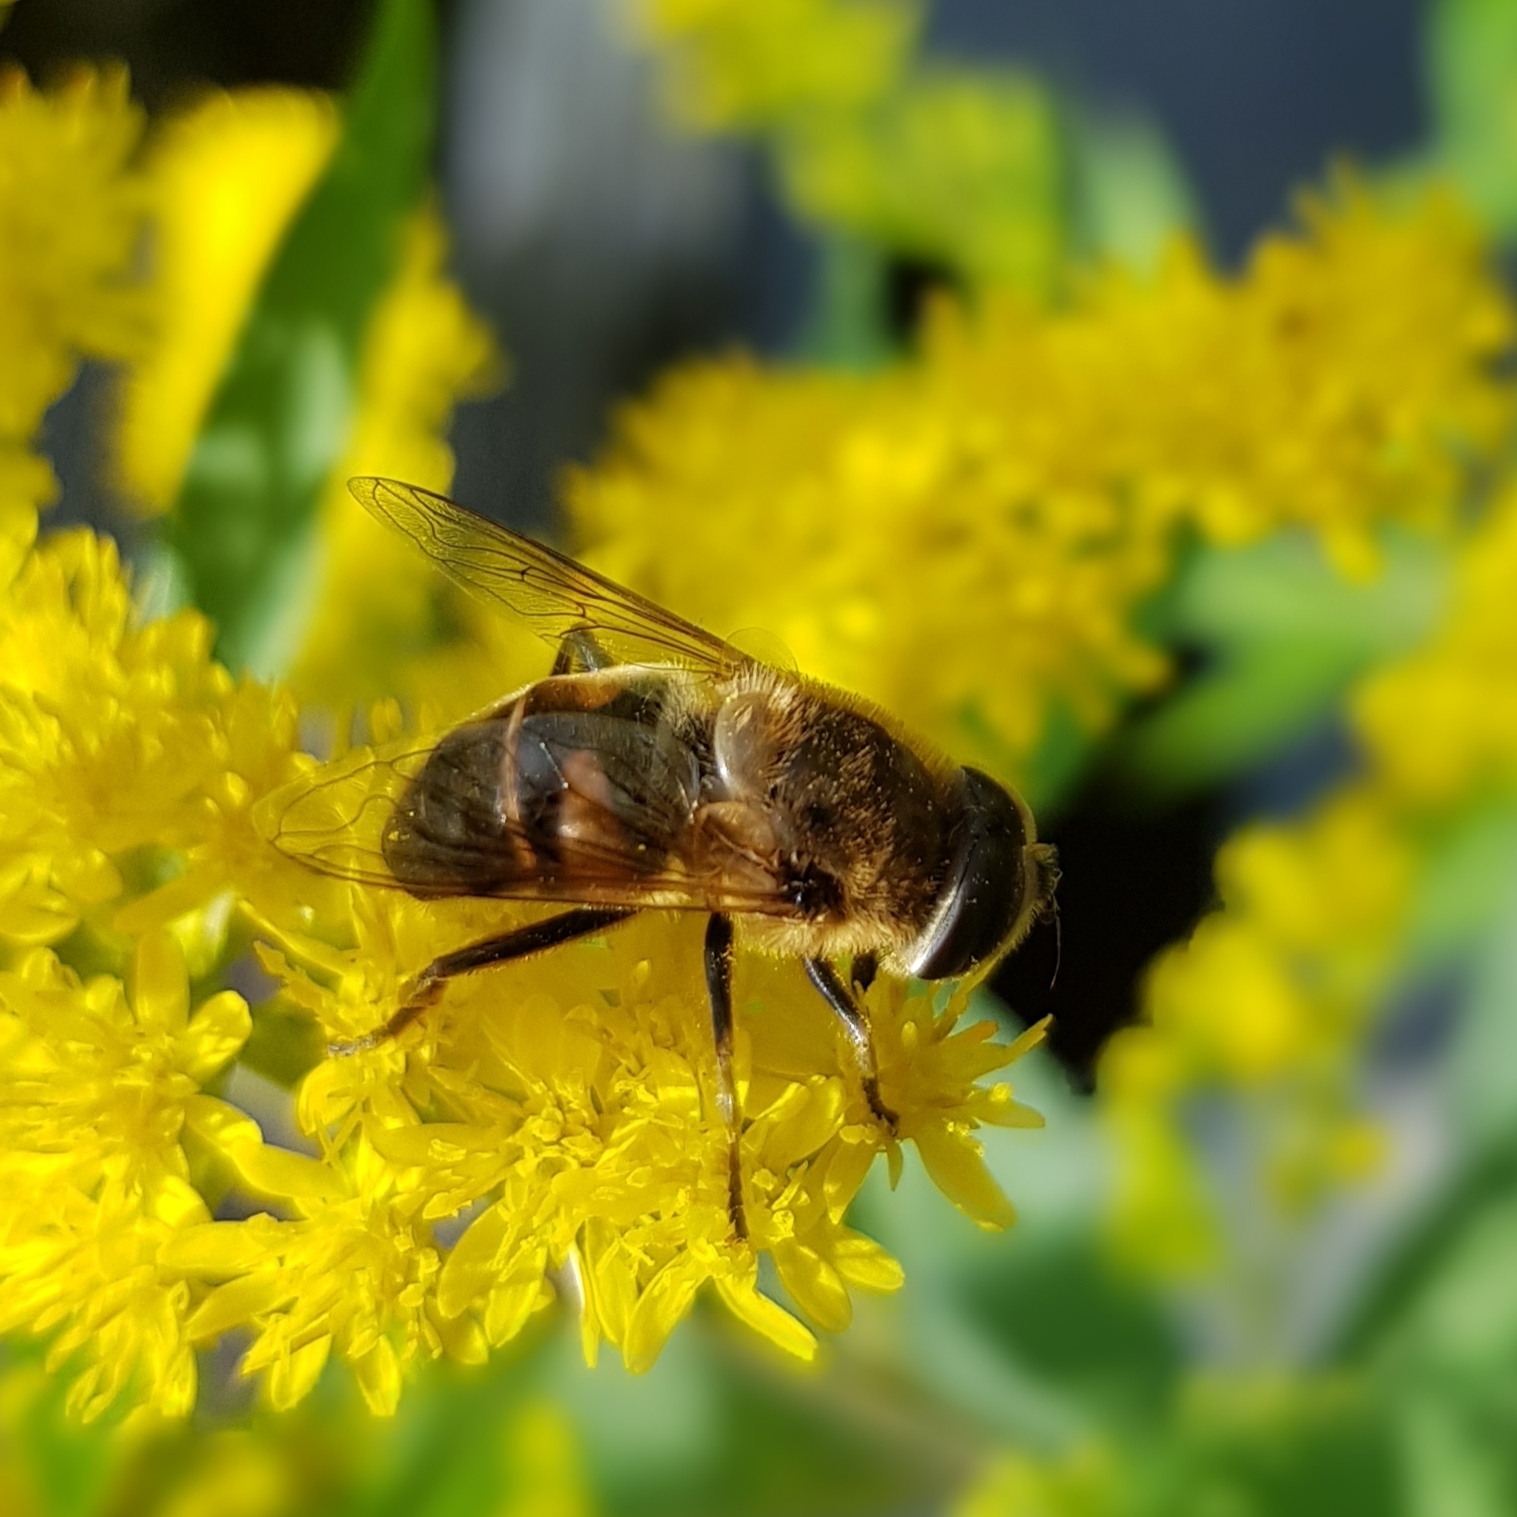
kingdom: Animalia
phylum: Arthropoda
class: Insecta
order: Diptera
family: Syrphidae
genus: Eristalis
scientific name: Eristalis tenax
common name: Drone fly
